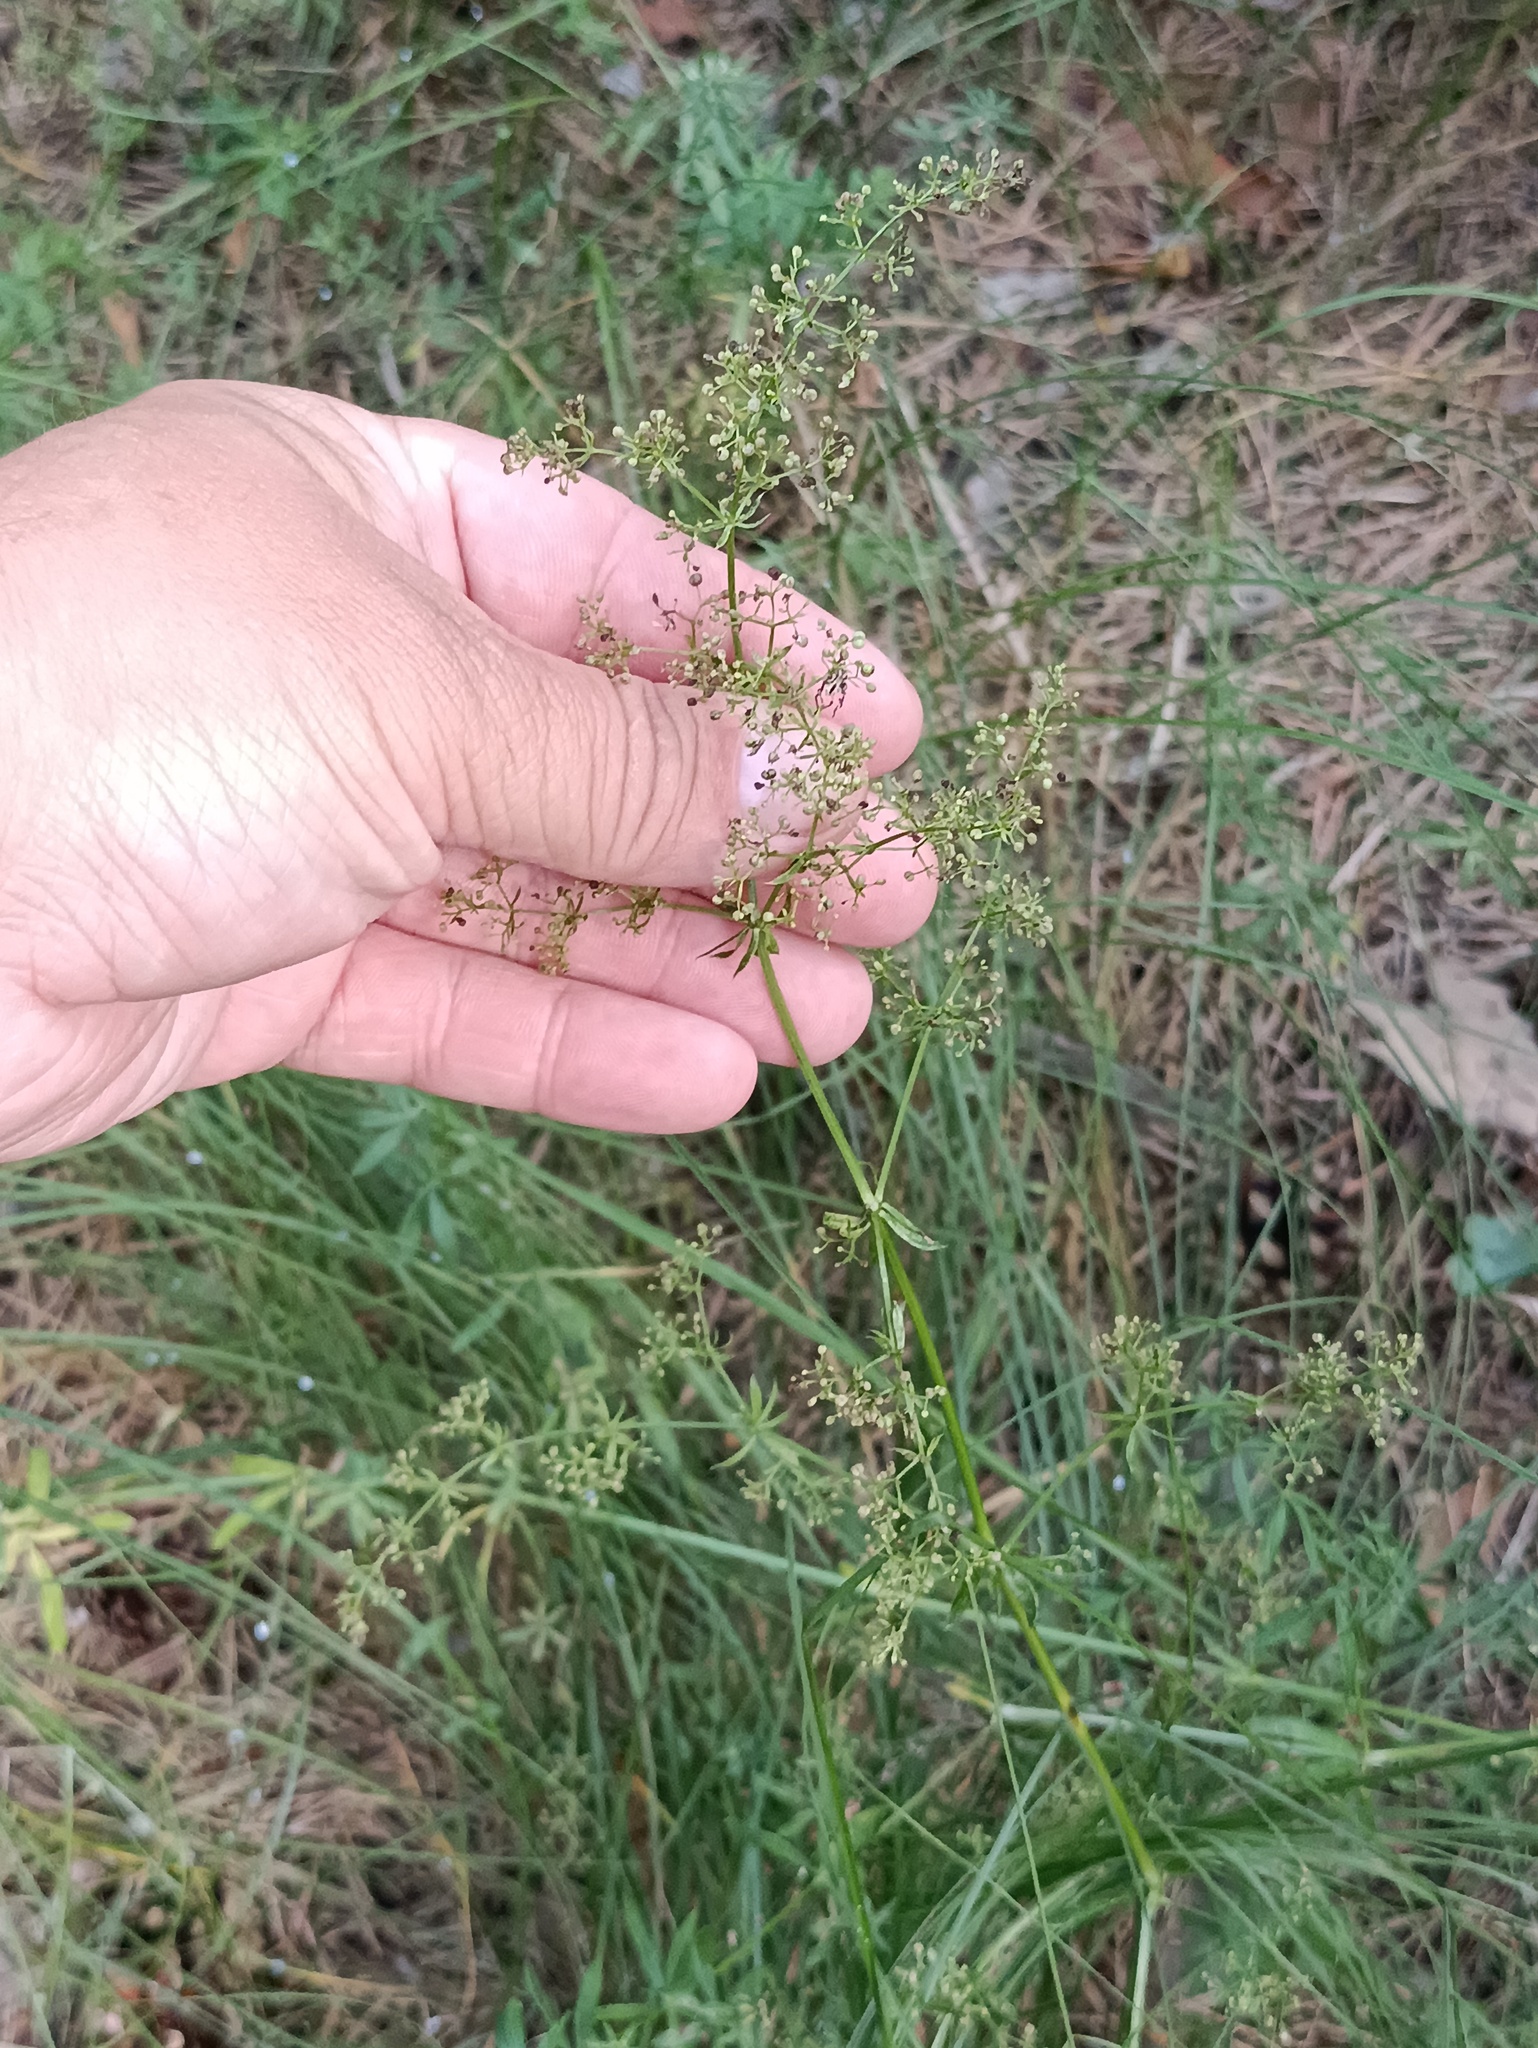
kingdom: Plantae
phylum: Tracheophyta
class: Magnoliopsida
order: Gentianales
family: Rubiaceae
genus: Galium
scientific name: Galium mollugo
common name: Hedge bedstraw
